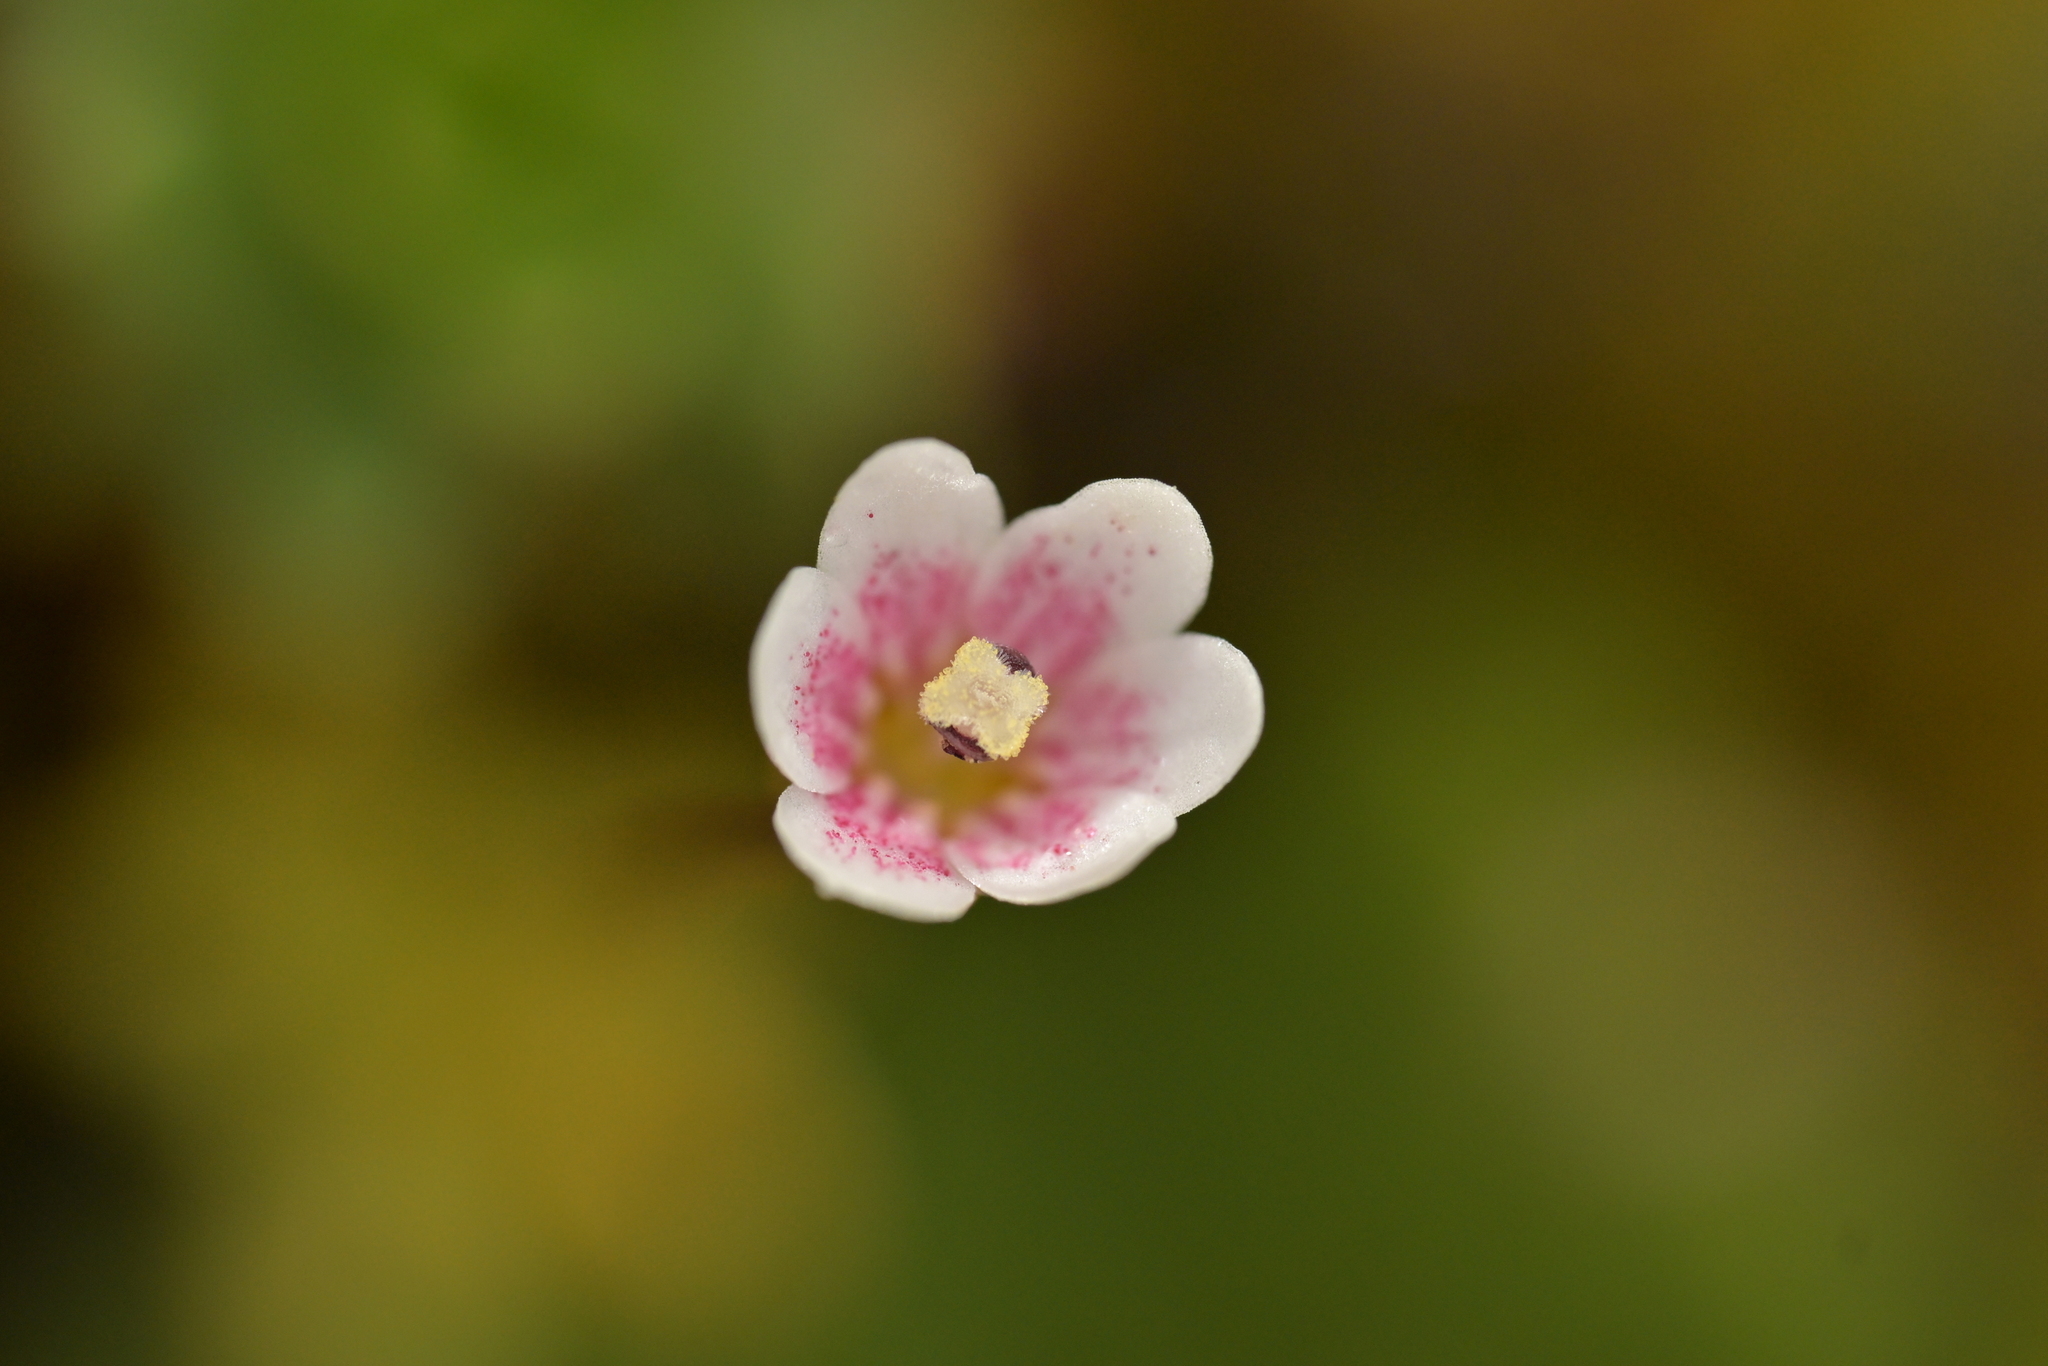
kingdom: Plantae
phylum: Tracheophyta
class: Magnoliopsida
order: Asterales
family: Stylidiaceae
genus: Forstera
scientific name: Forstera tenella
